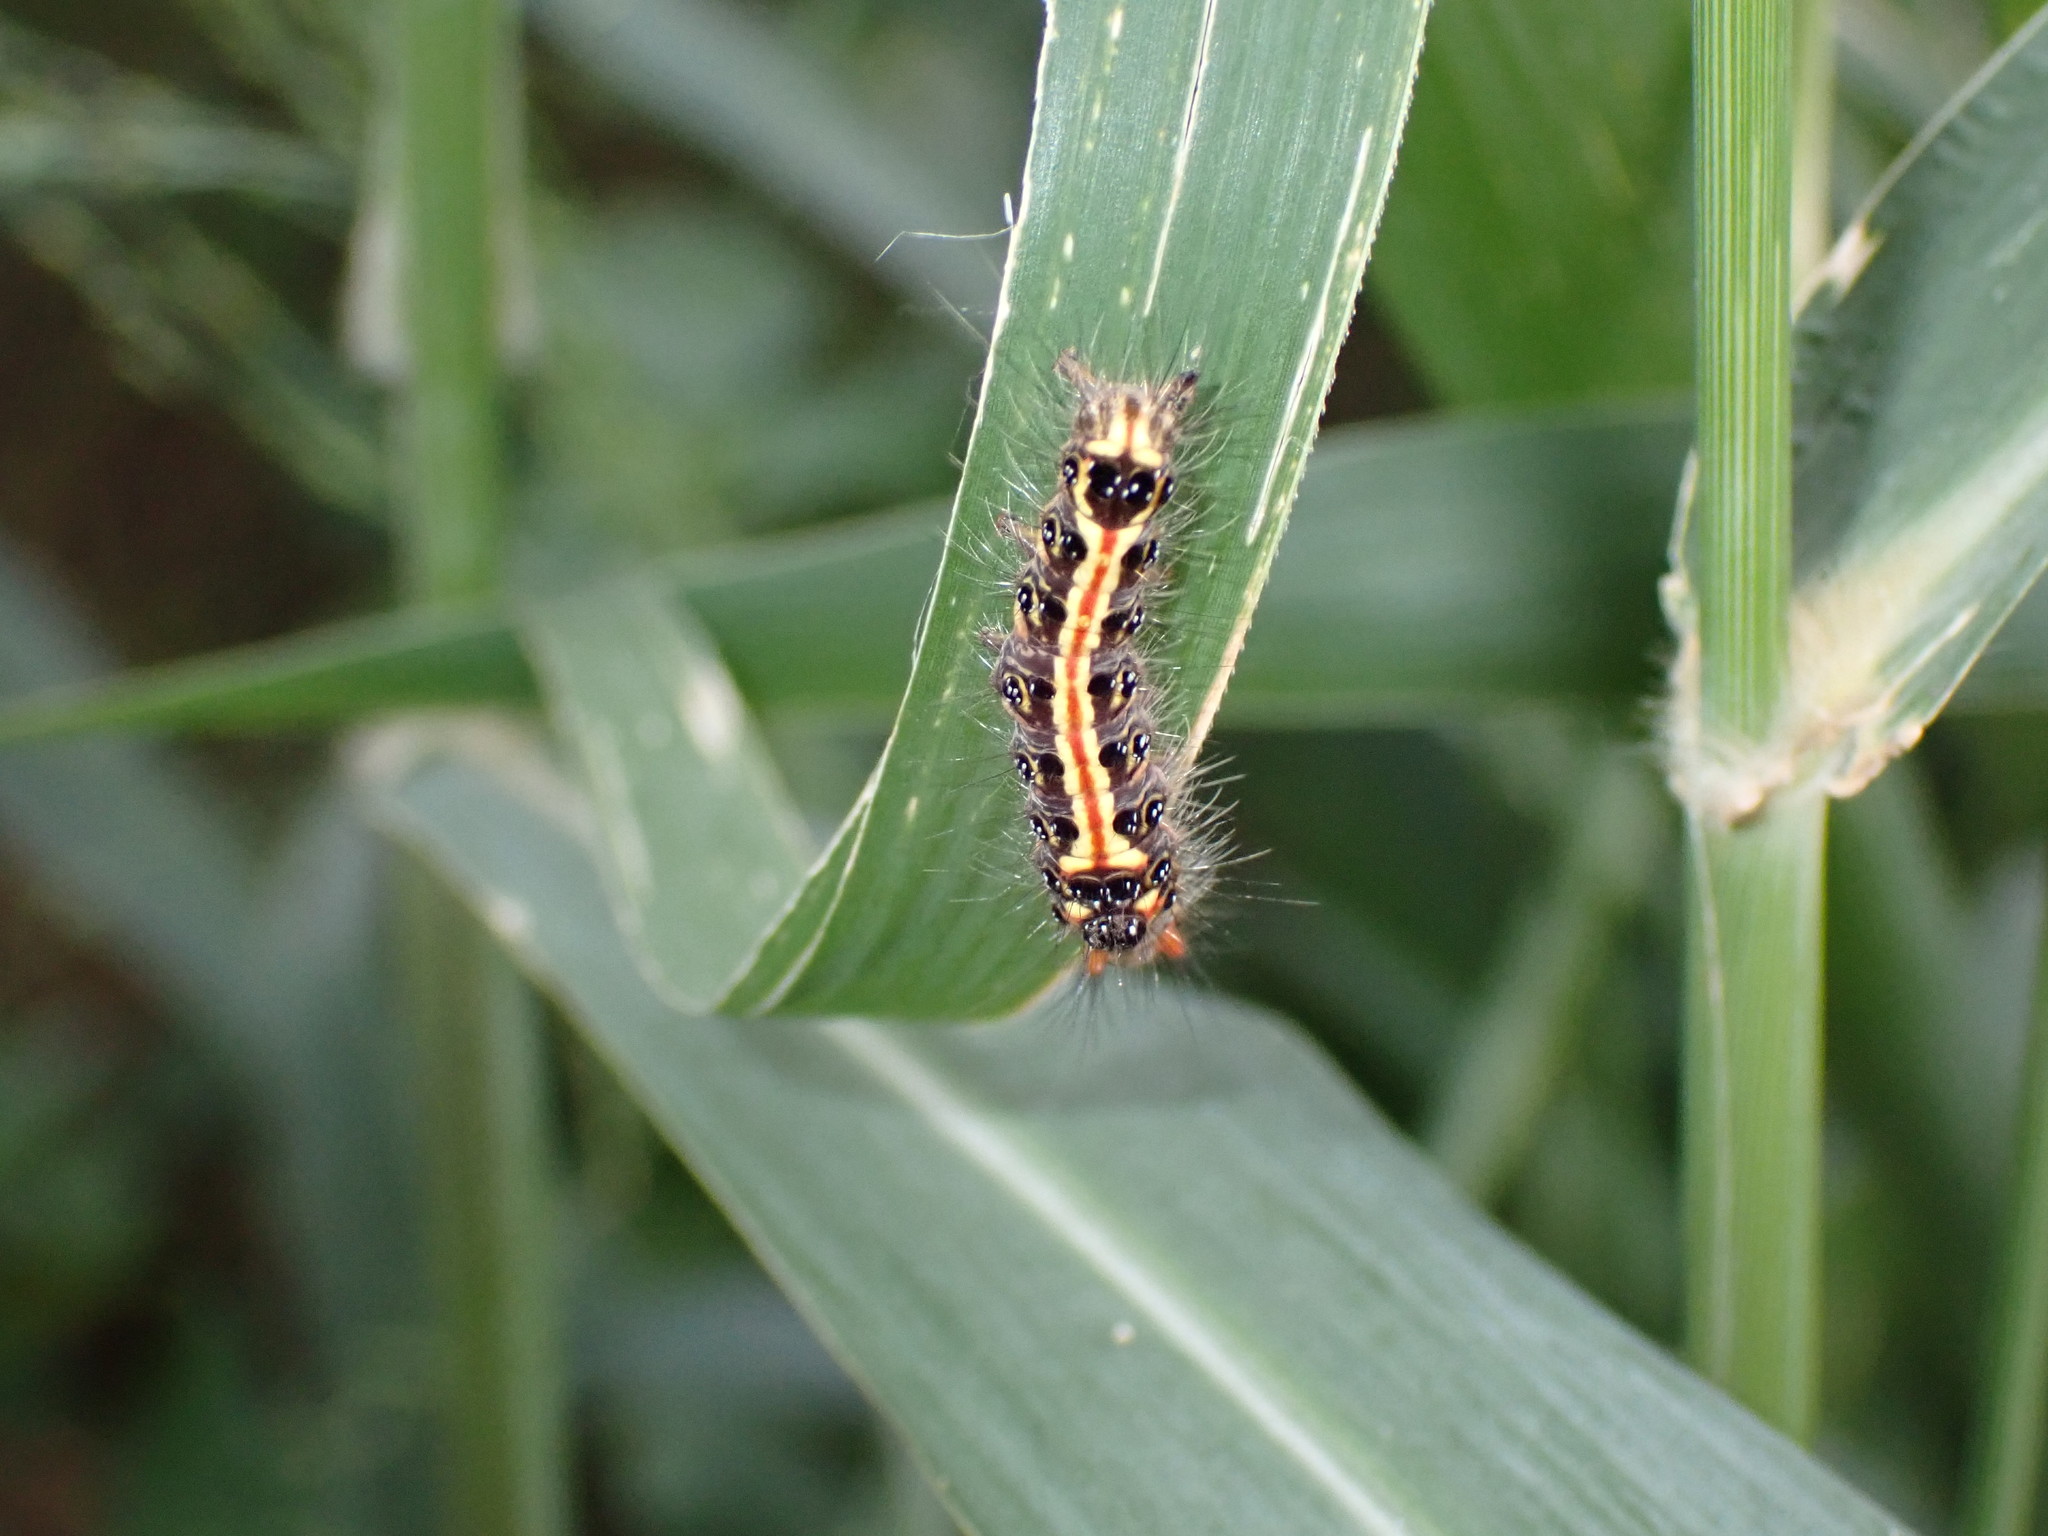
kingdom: Animalia
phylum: Arthropoda
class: Insecta
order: Lepidoptera
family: Erebidae
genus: Orvasca
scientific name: Orvasca subnotata
